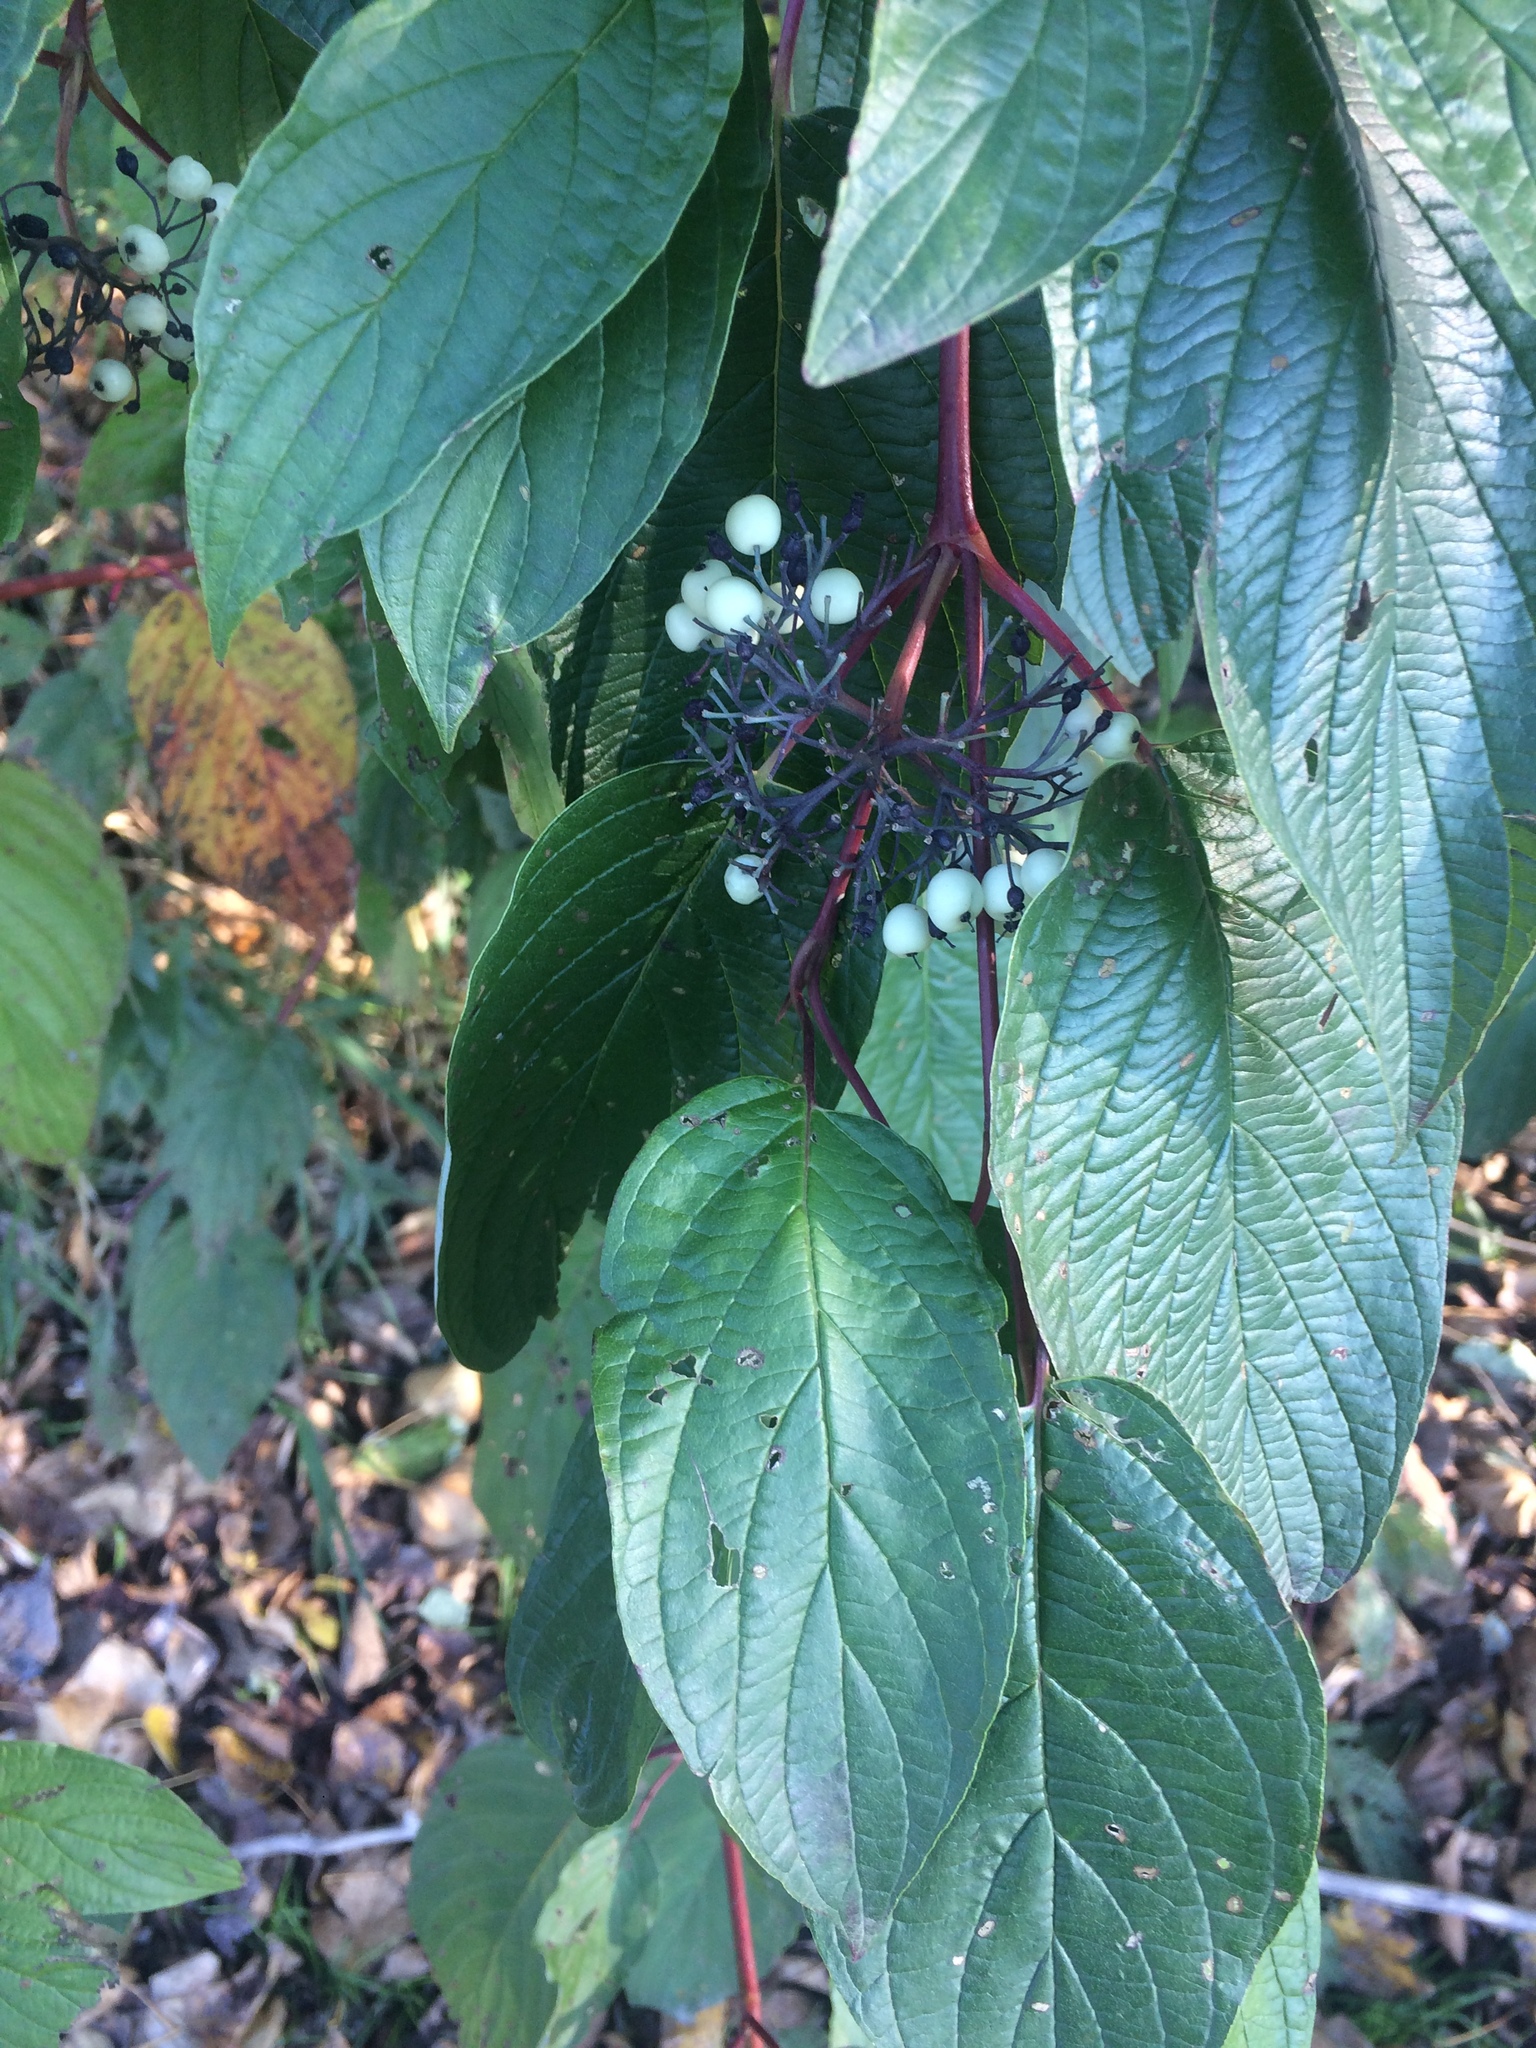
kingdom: Plantae
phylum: Tracheophyta
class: Magnoliopsida
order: Cornales
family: Cornaceae
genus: Cornus
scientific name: Cornus sericea
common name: Red-osier dogwood
